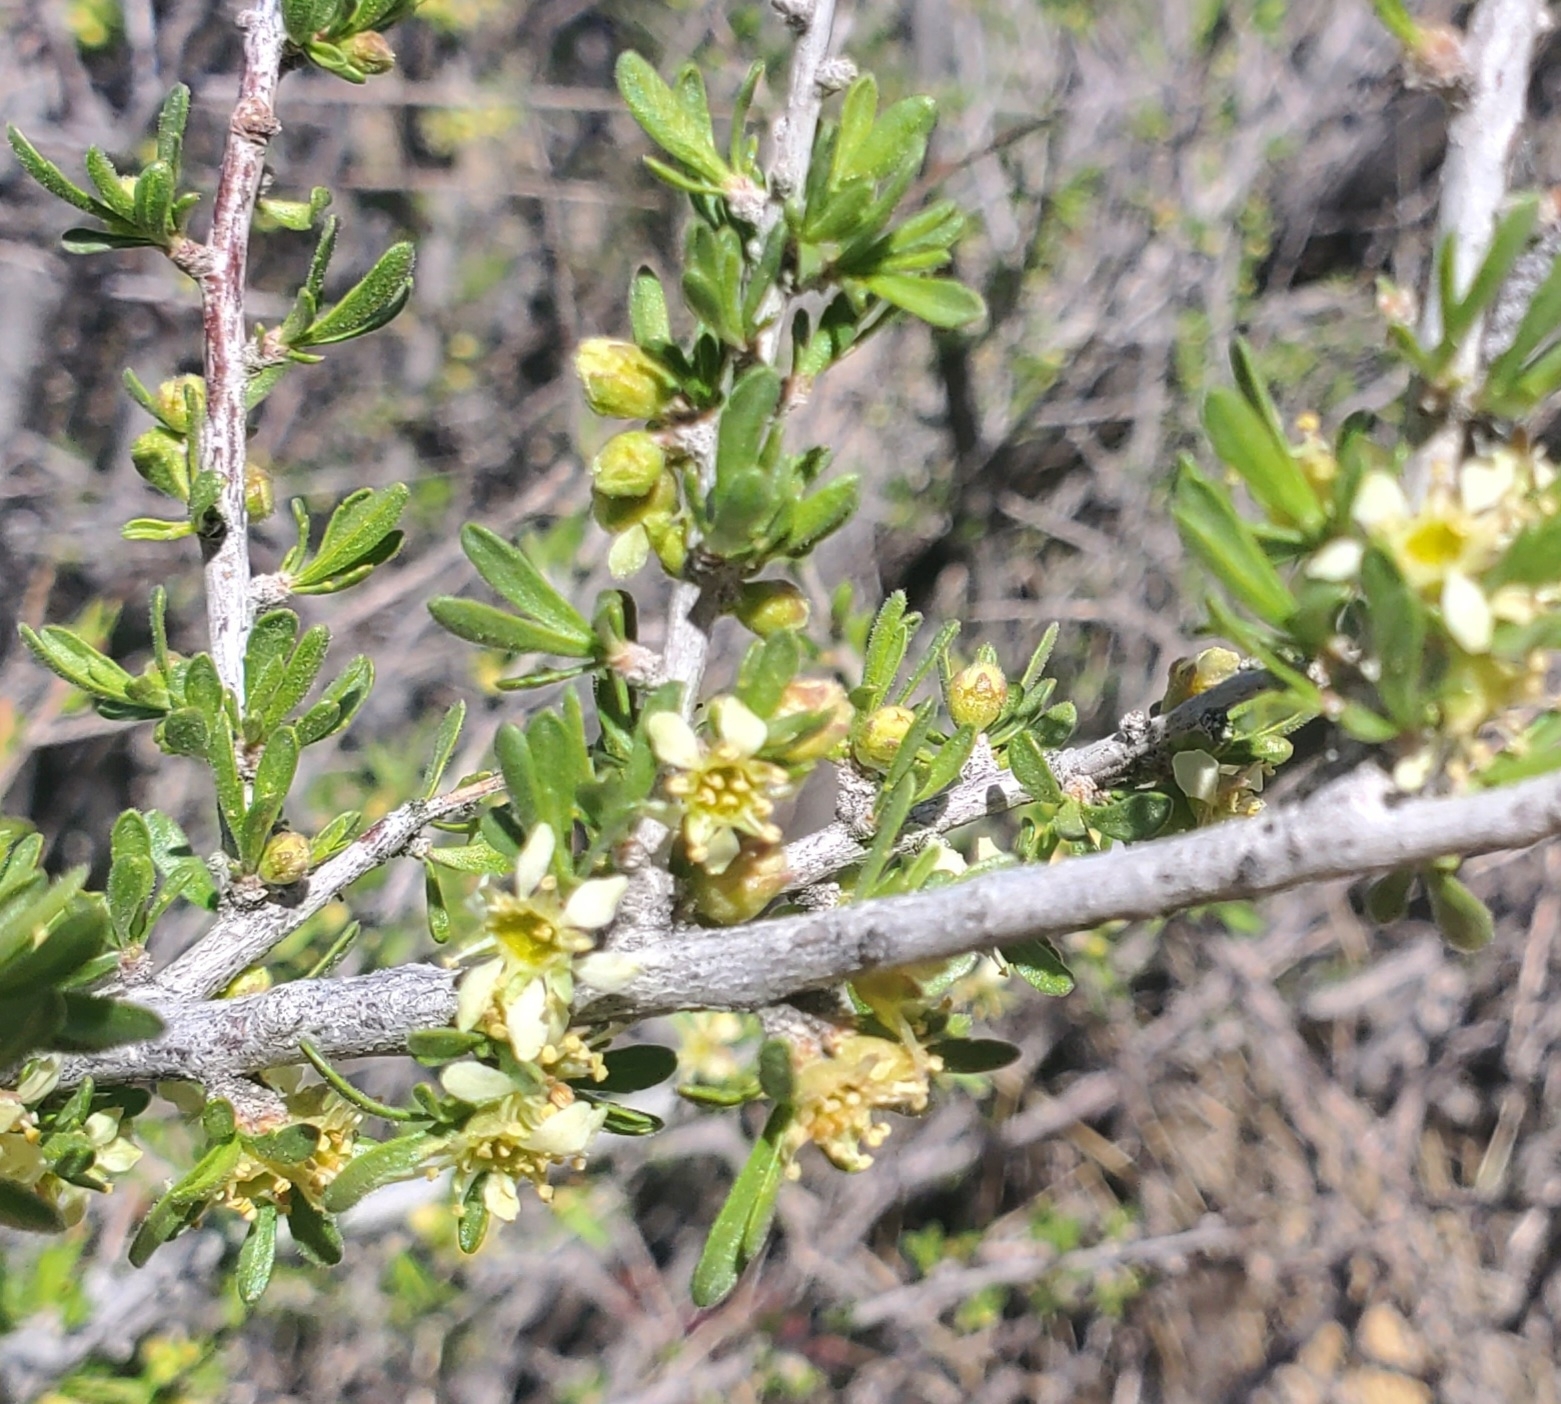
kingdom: Plantae
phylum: Tracheophyta
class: Magnoliopsida
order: Rosales
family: Rosaceae
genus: Prunus
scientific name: Prunus fasciculata
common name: Desert almond
